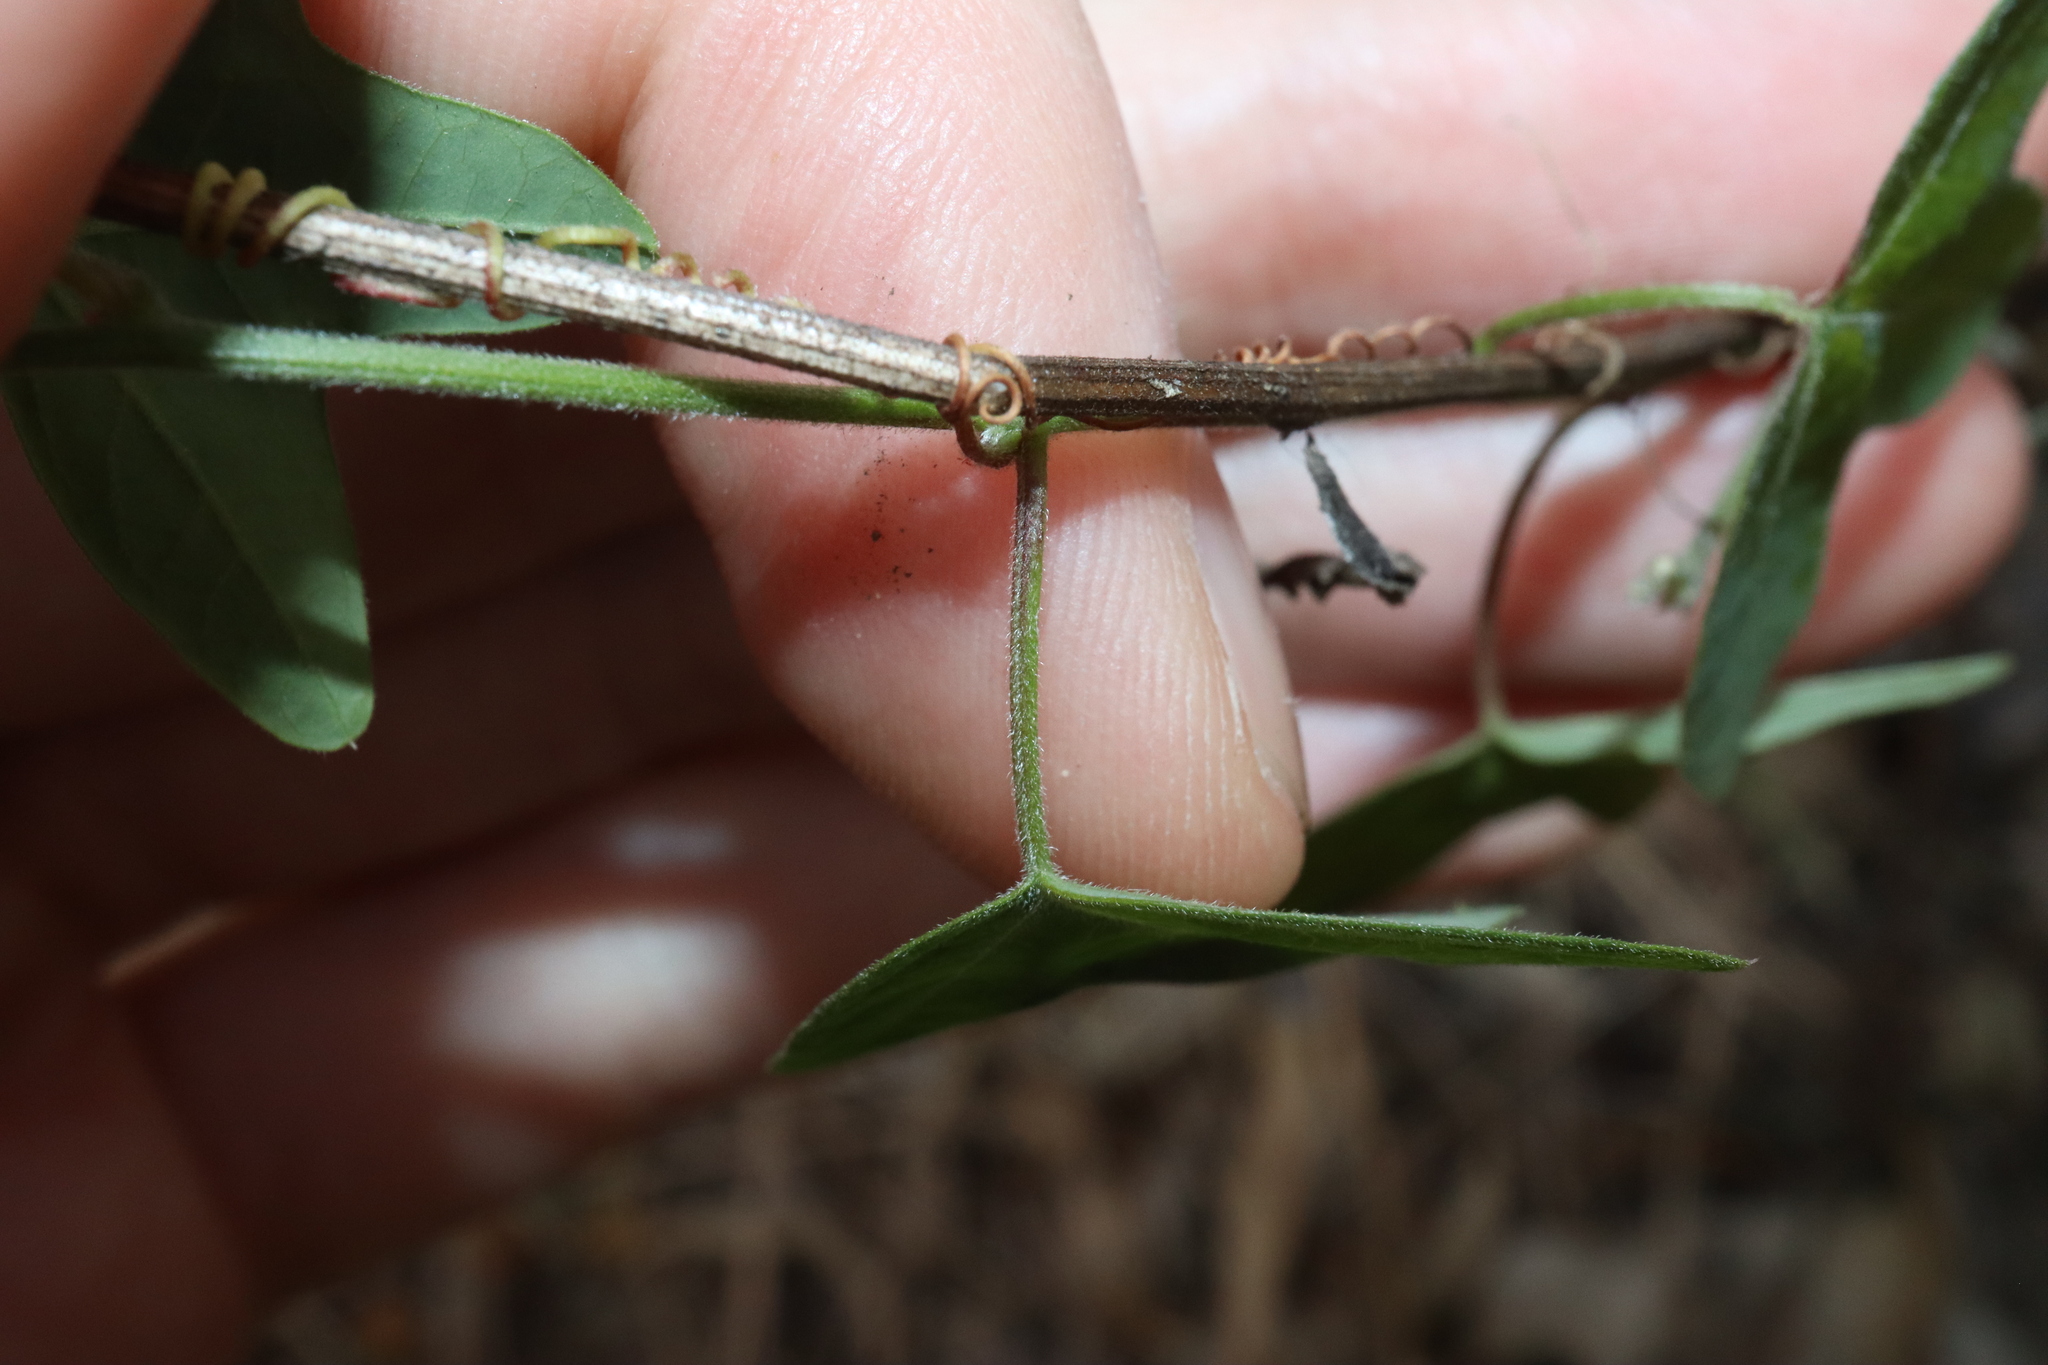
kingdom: Plantae
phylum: Tracheophyta
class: Magnoliopsida
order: Malpighiales
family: Passifloraceae
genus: Passiflora
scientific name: Passiflora herbertiana
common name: Yellow passionflower
